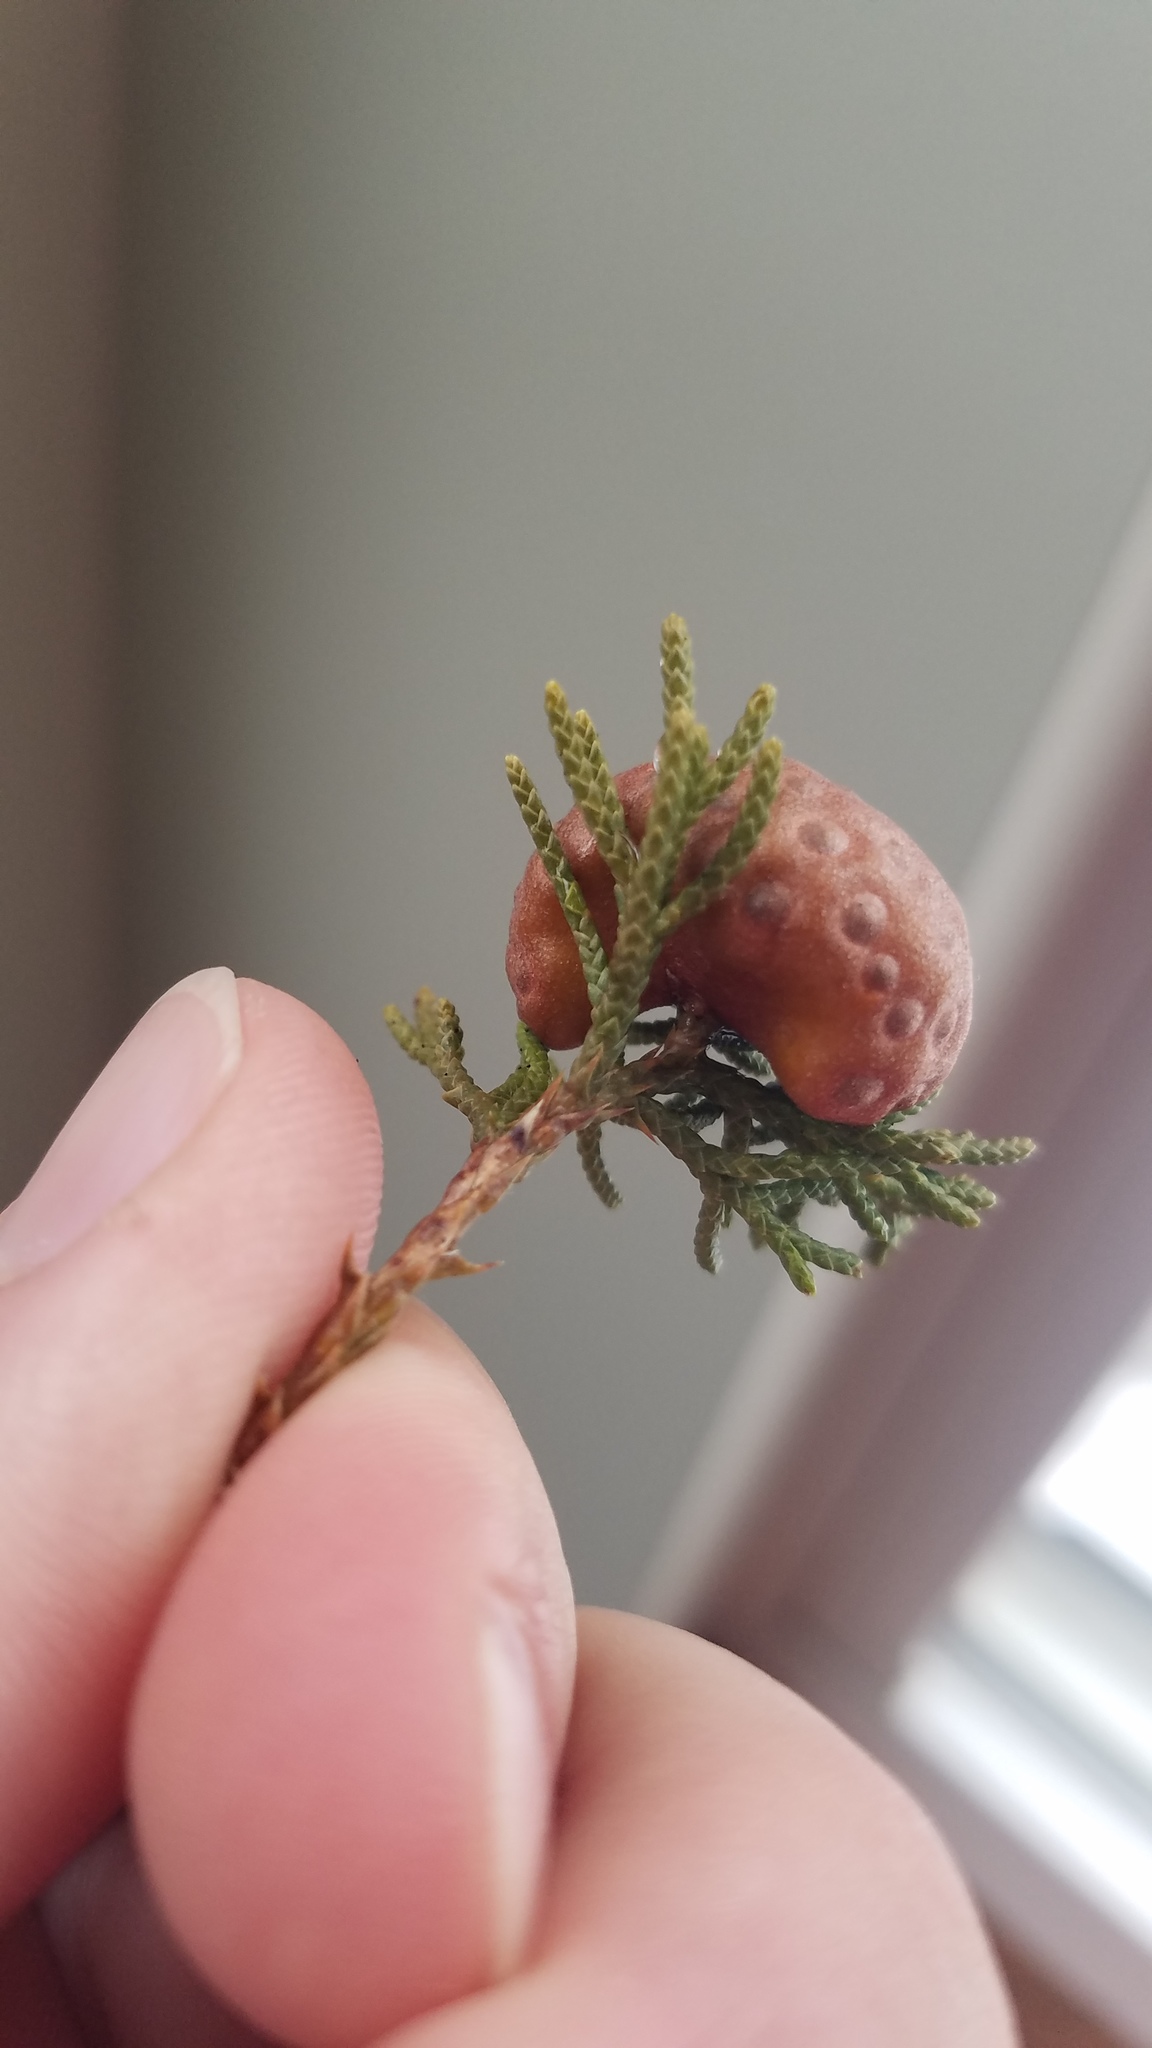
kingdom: Fungi
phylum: Basidiomycota
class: Pucciniomycetes
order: Pucciniales
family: Gymnosporangiaceae
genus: Gymnosporangium
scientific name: Gymnosporangium juniperi-virginianae
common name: Juniper-apple rust
